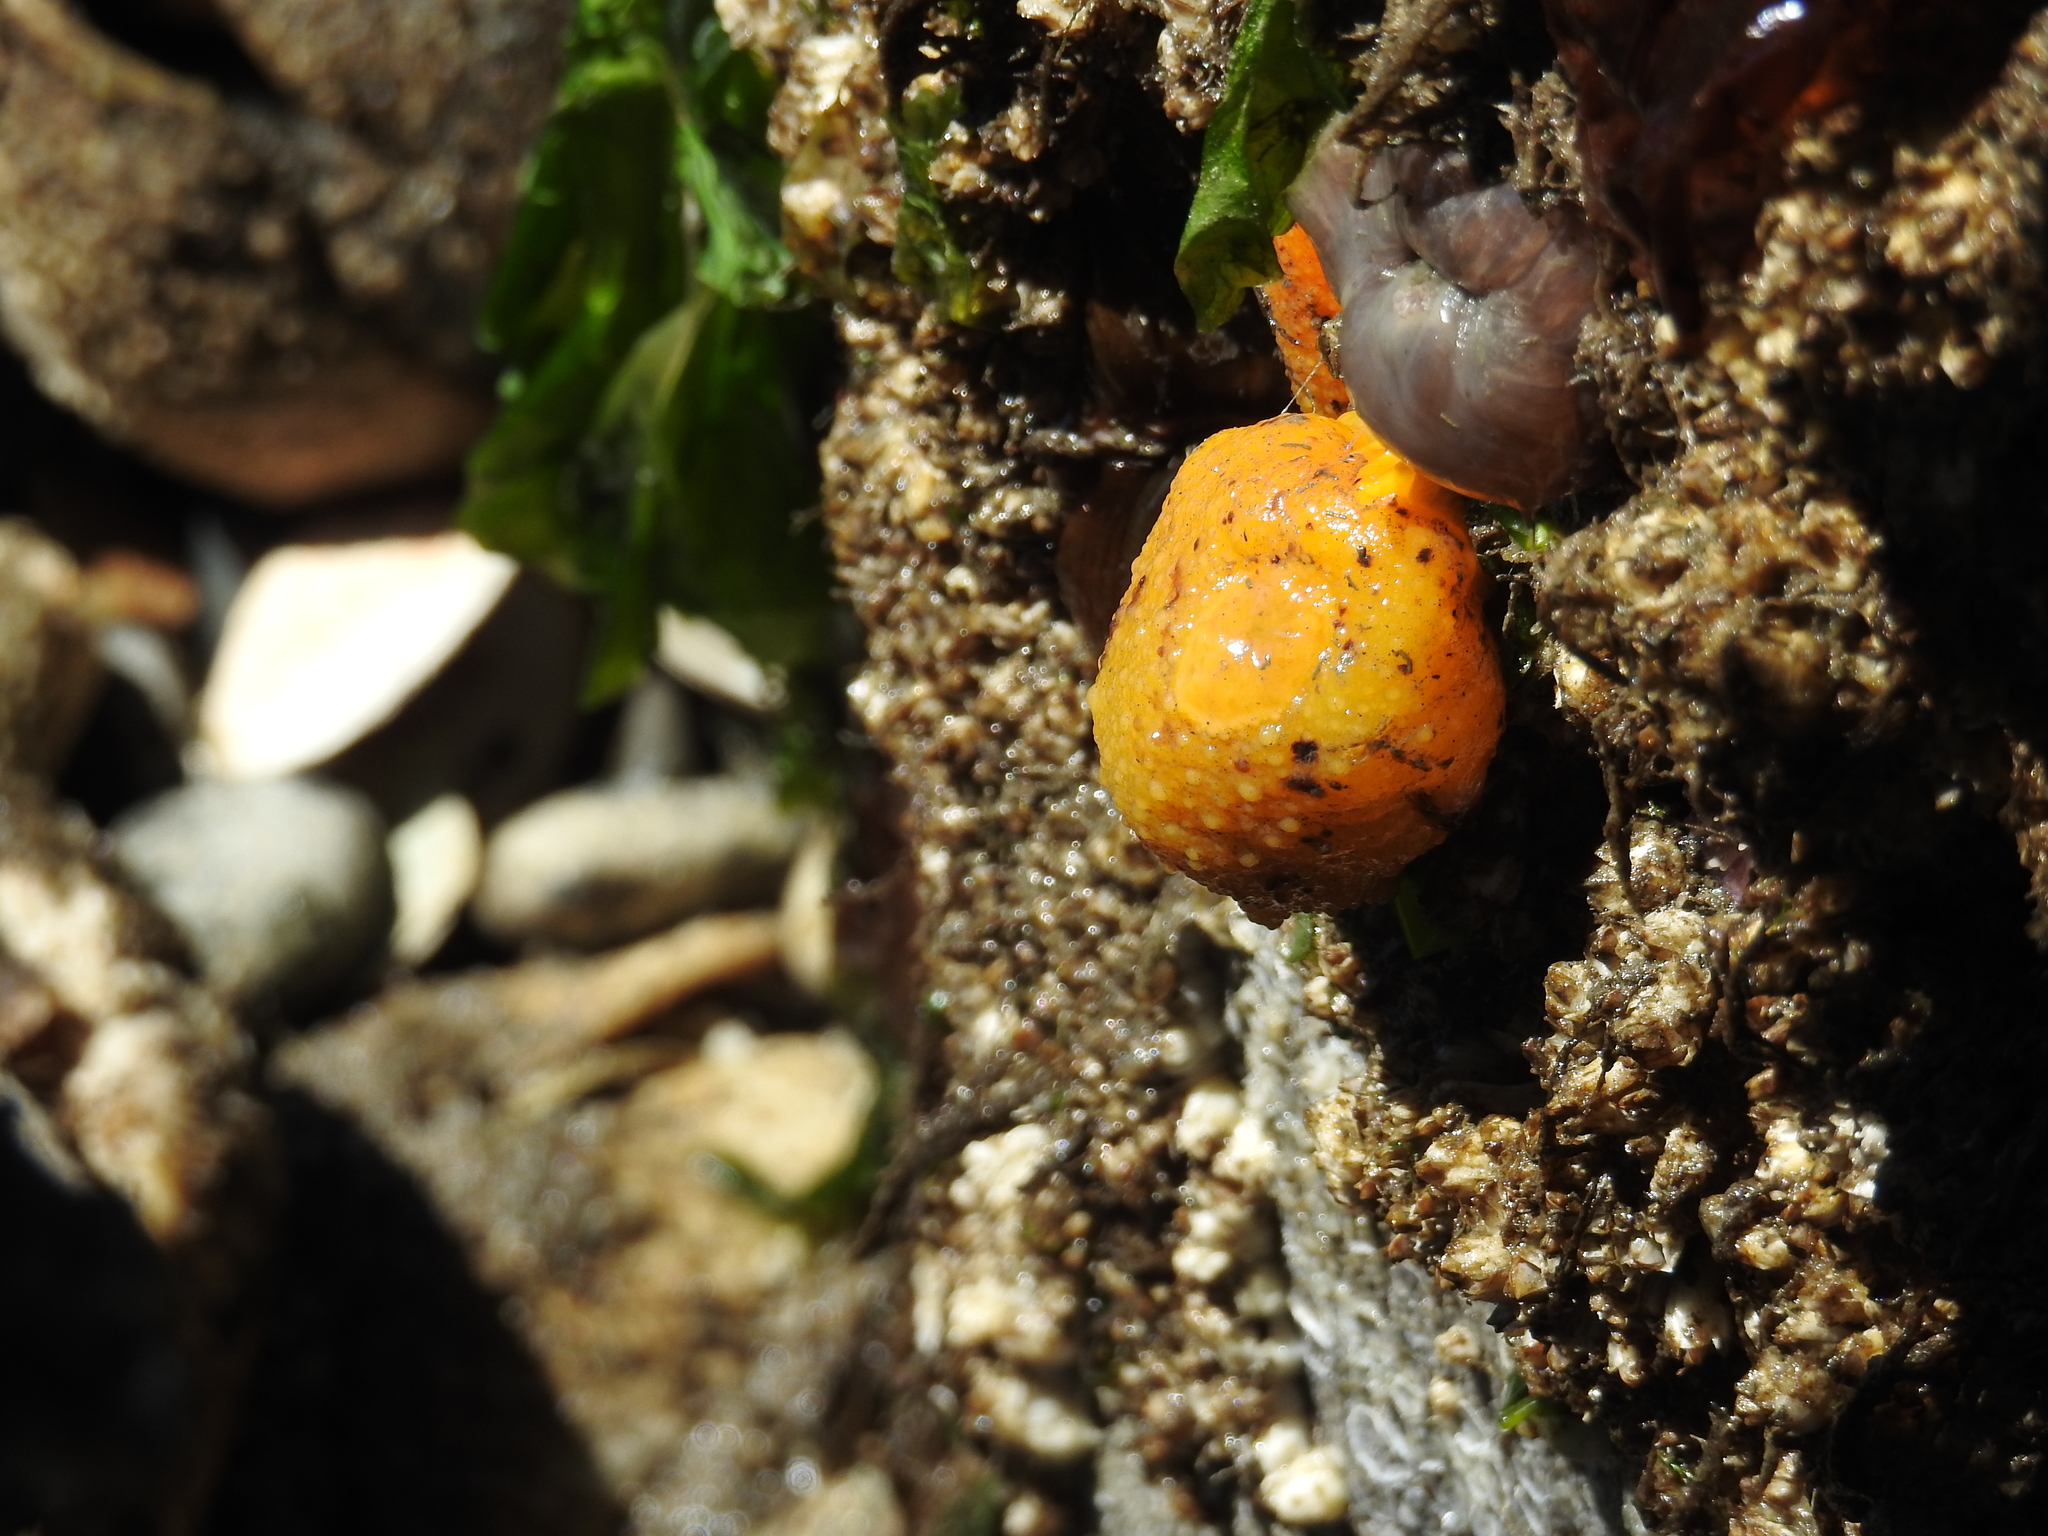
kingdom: Animalia
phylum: Mollusca
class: Gastropoda
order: Nudibranchia
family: Dorididae
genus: Doris
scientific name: Doris montereyensis
